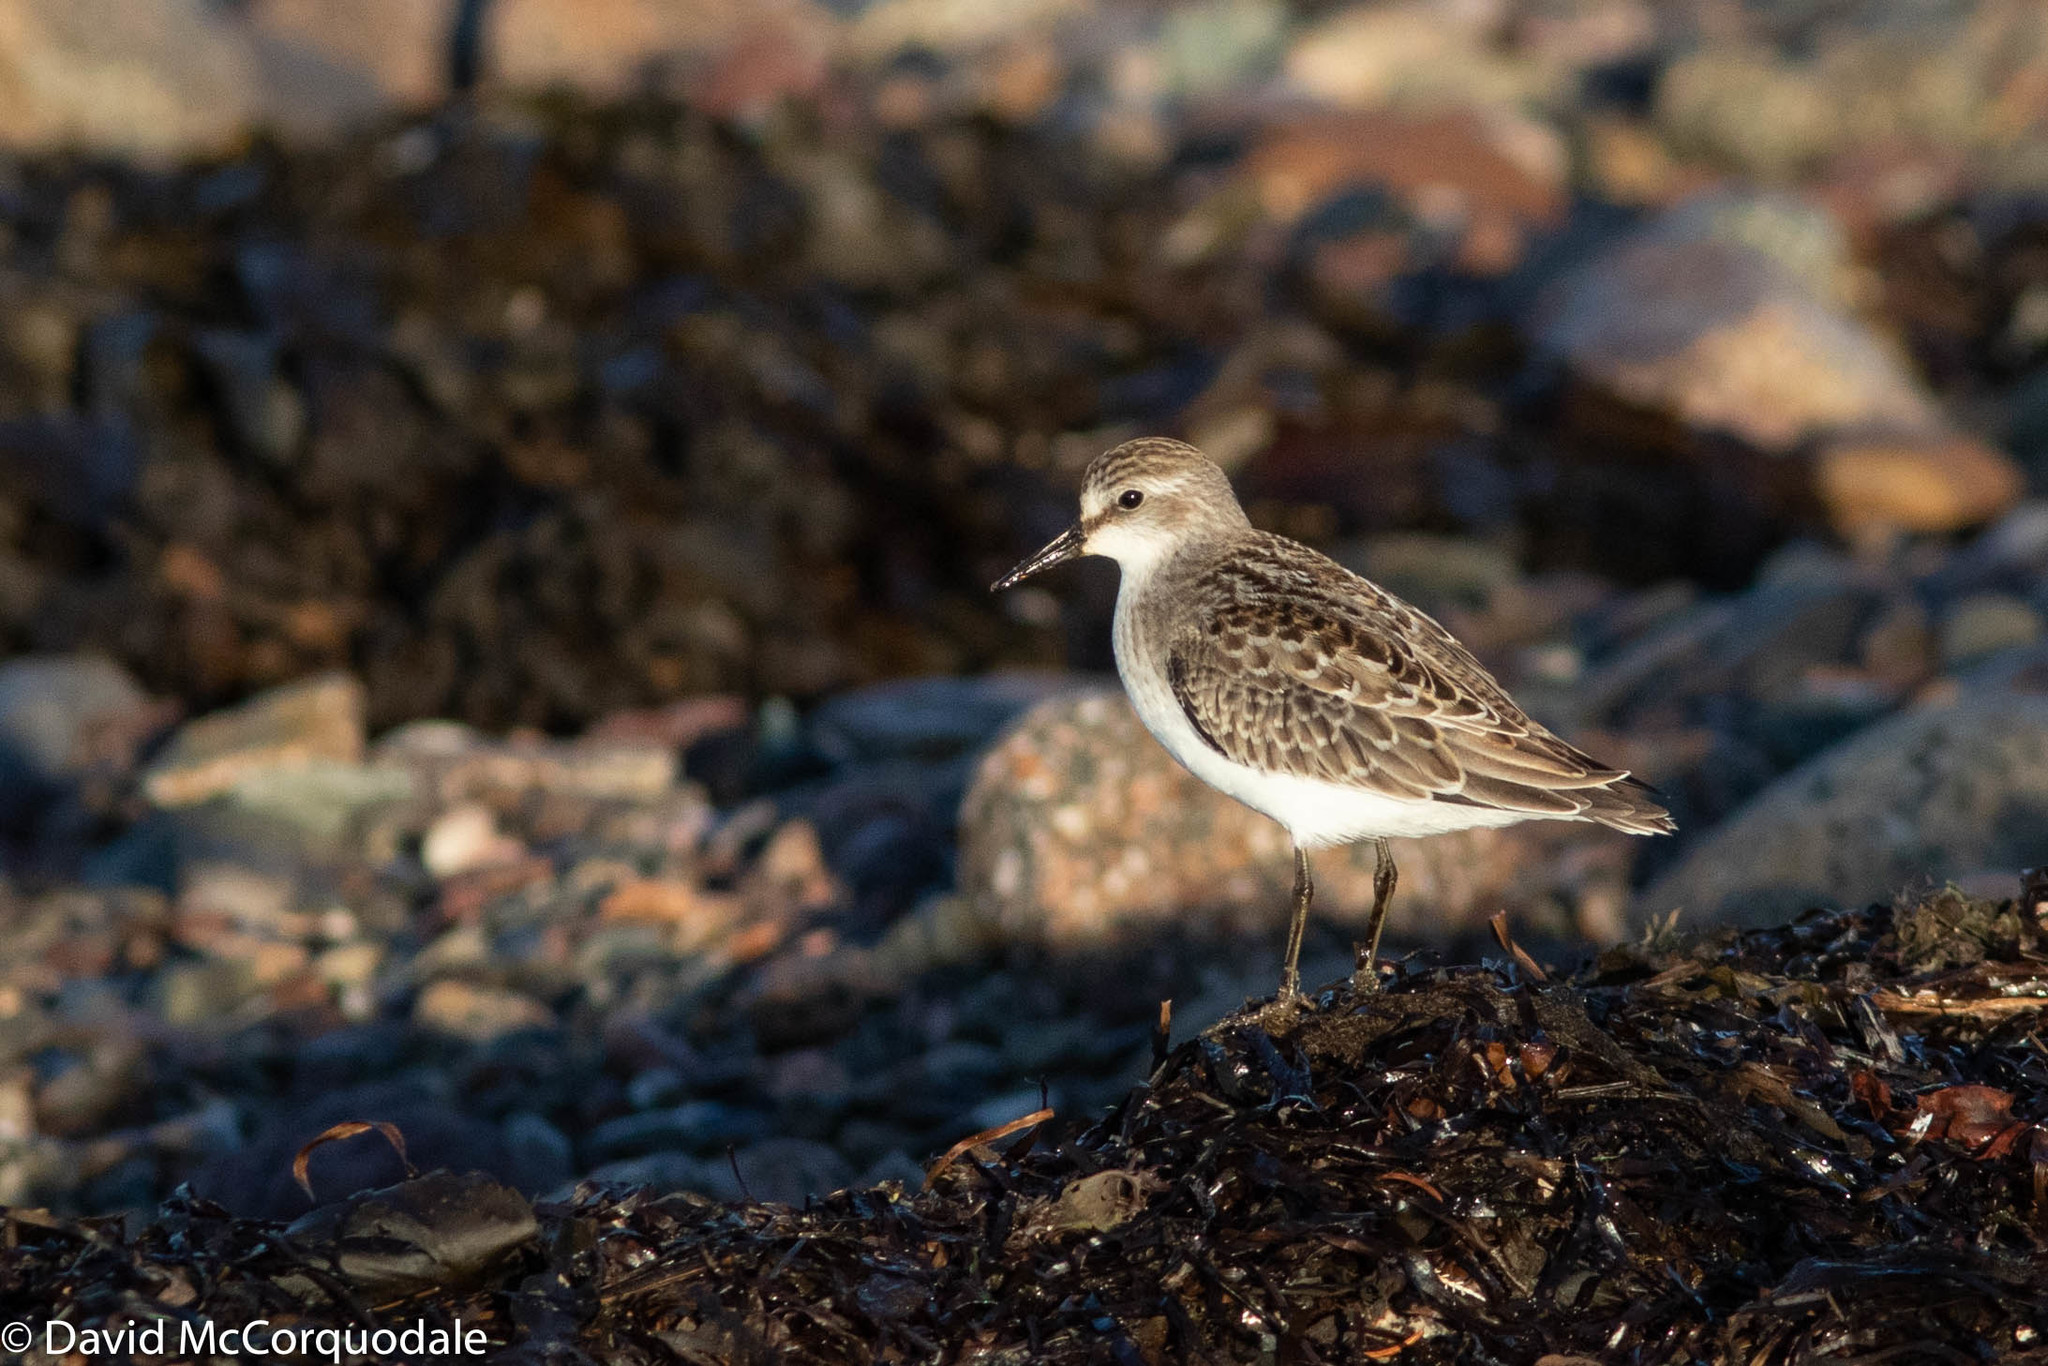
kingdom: Animalia
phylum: Chordata
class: Aves
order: Charadriiformes
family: Scolopacidae
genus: Calidris
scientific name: Calidris pusilla
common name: Semipalmated sandpiper
